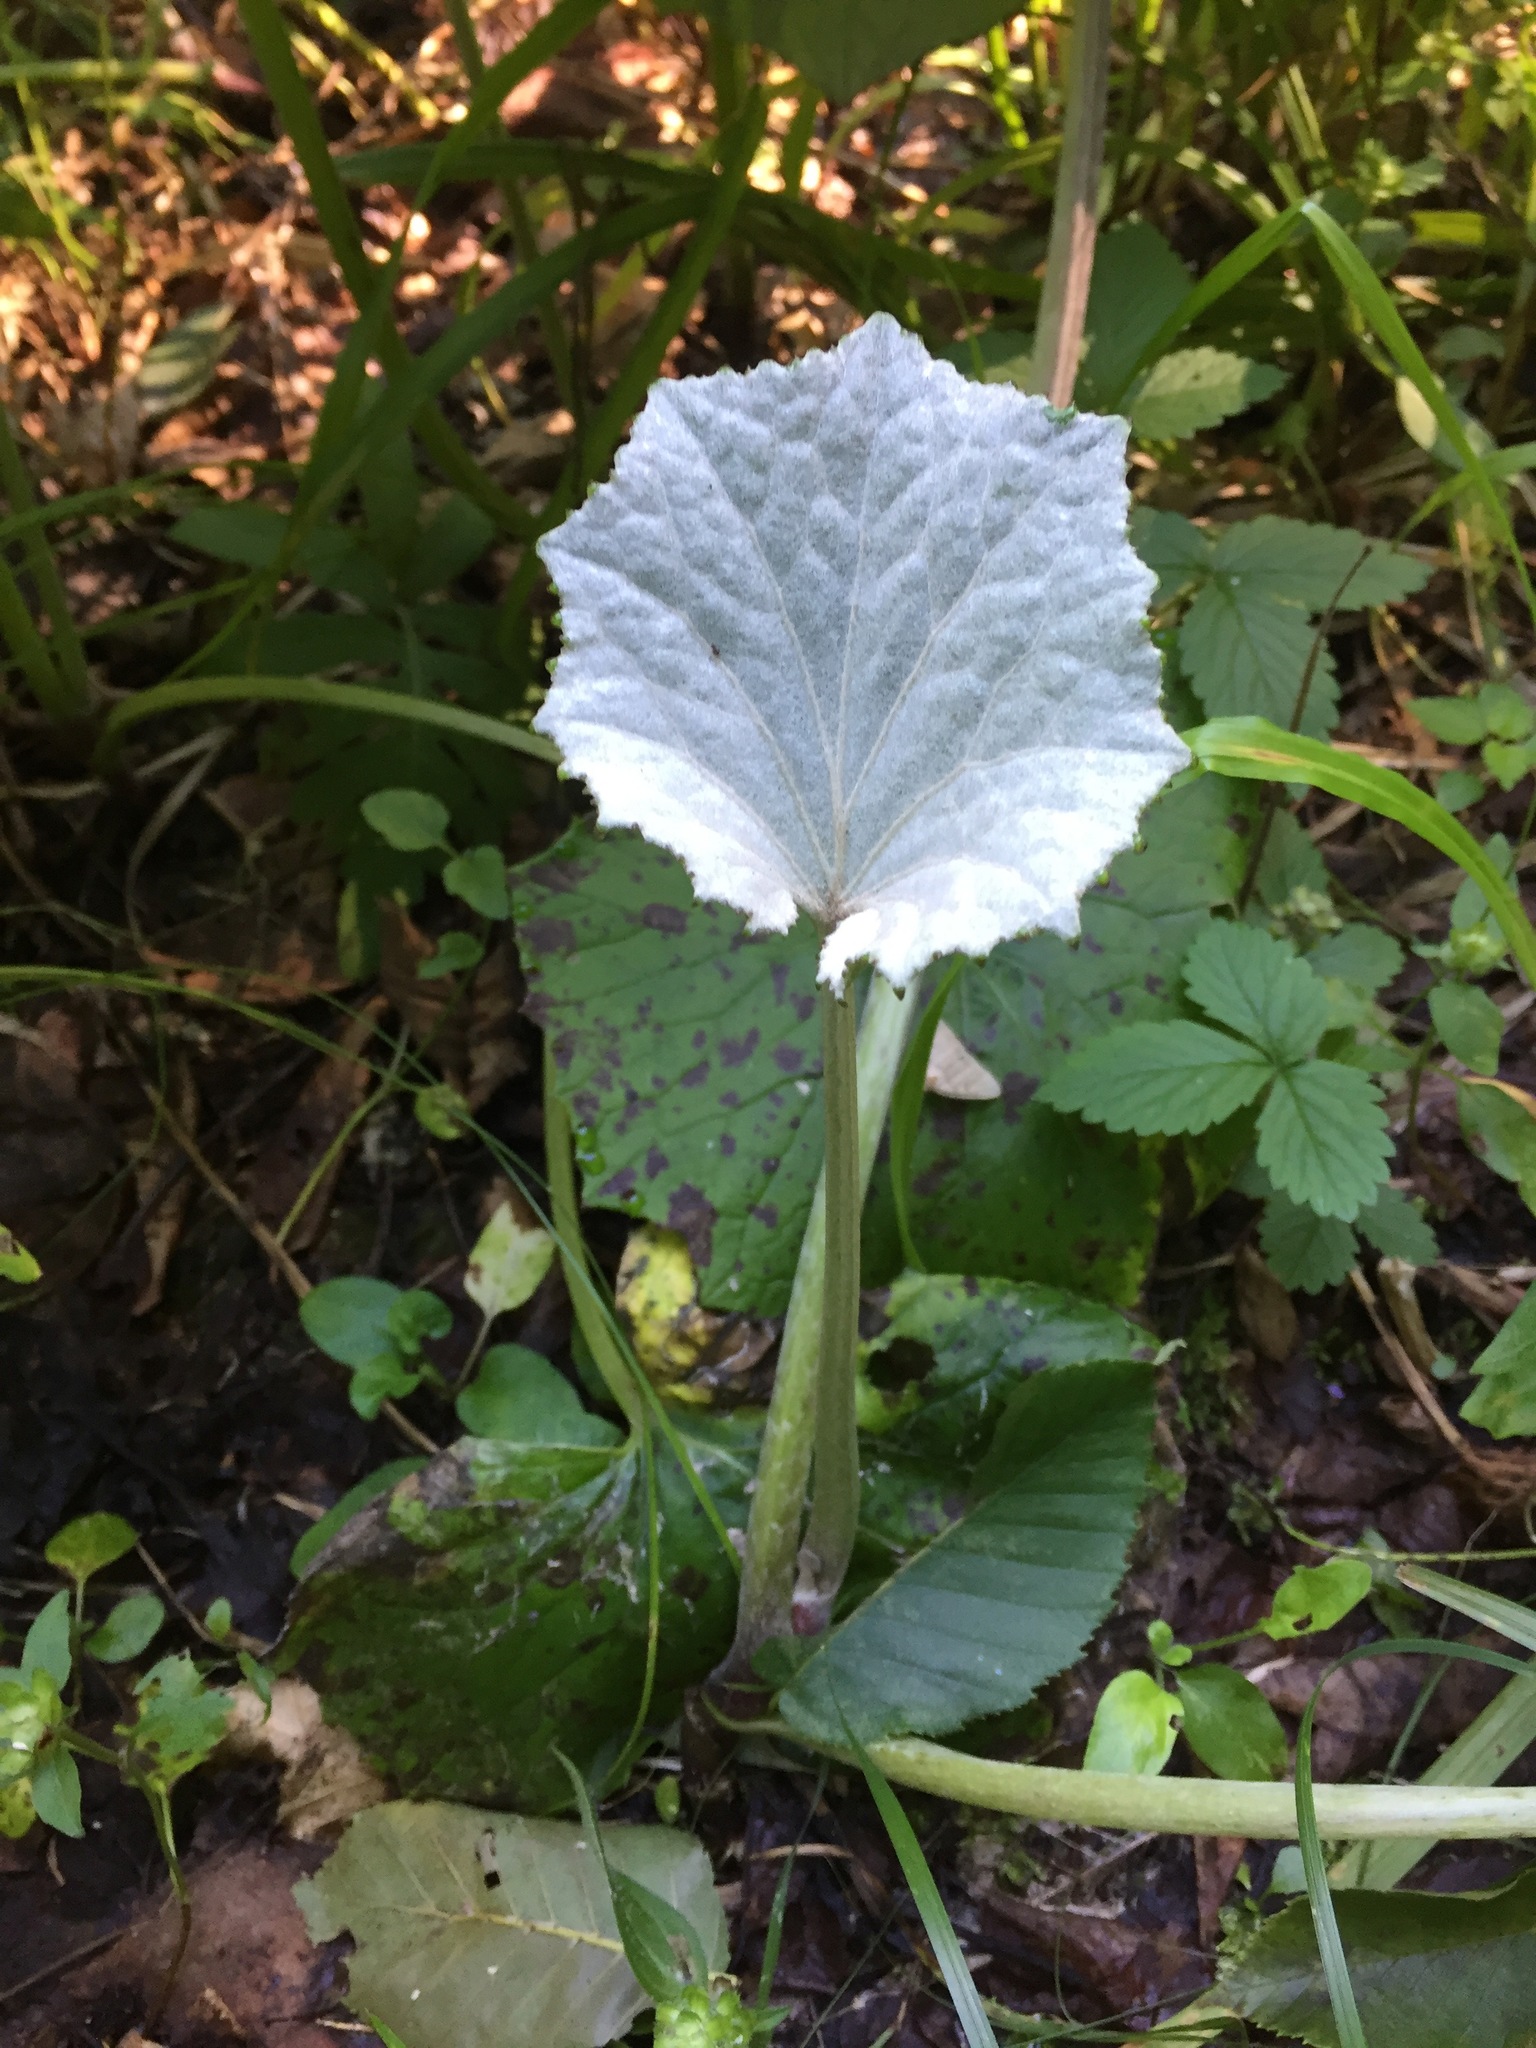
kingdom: Plantae
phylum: Tracheophyta
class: Magnoliopsida
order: Asterales
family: Asteraceae
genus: Tussilago
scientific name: Tussilago farfara
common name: Coltsfoot
